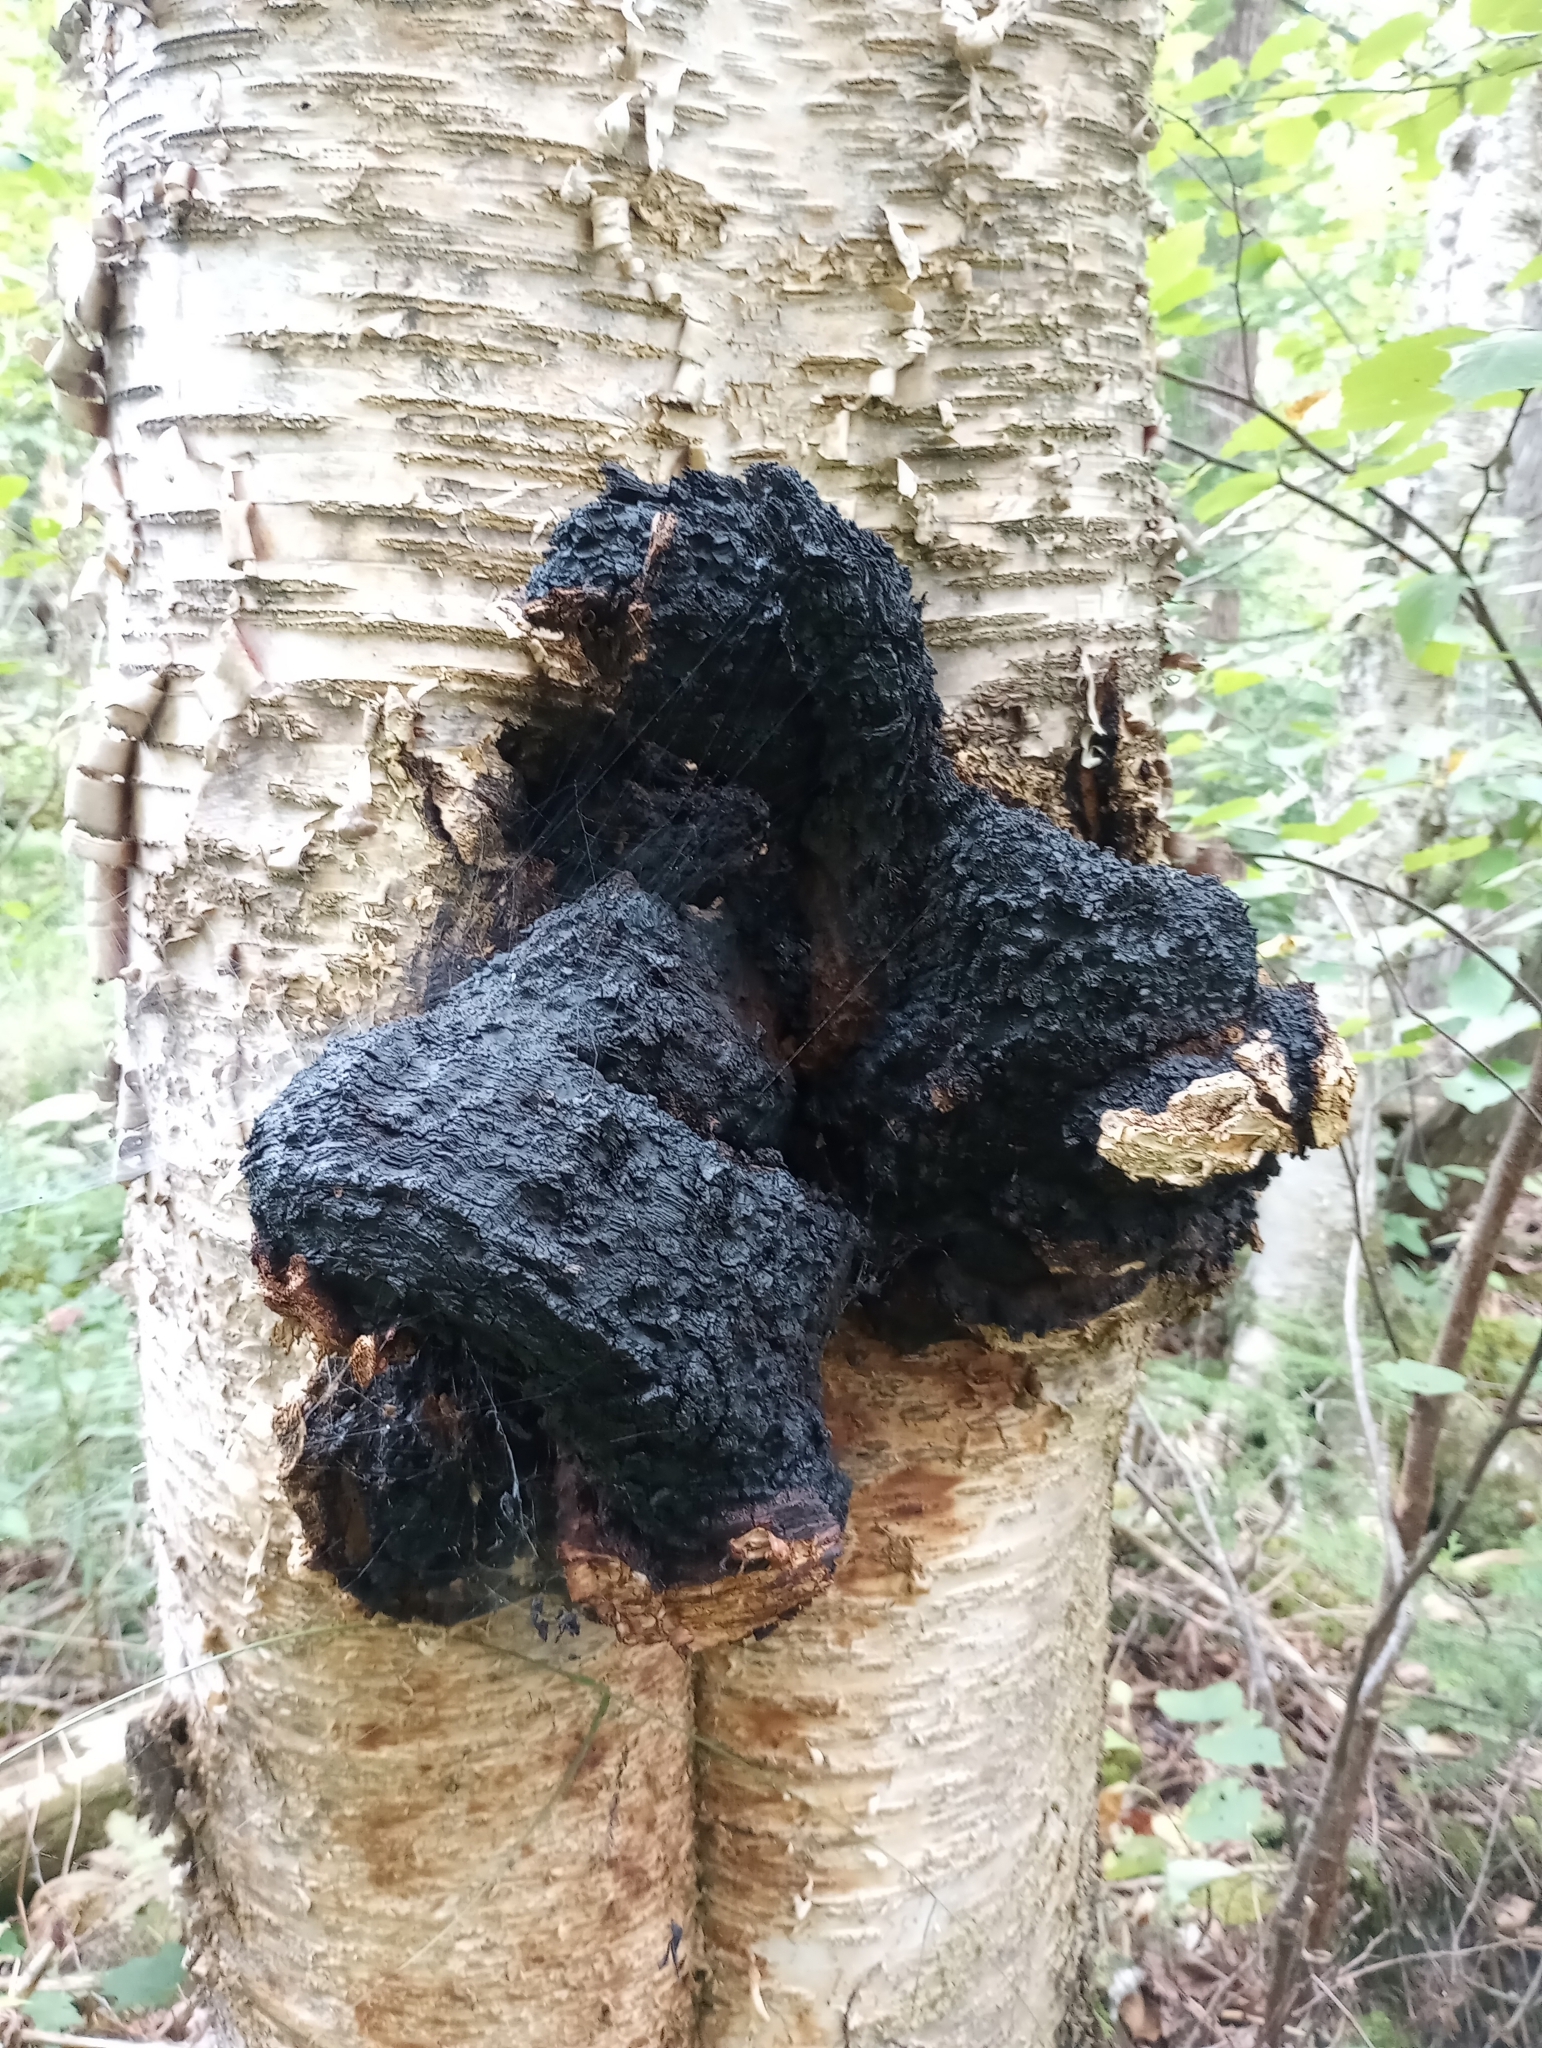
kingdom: Fungi
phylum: Basidiomycota
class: Agaricomycetes
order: Hymenochaetales
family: Hymenochaetaceae
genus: Inonotus
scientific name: Inonotus obliquus
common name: Chaga
